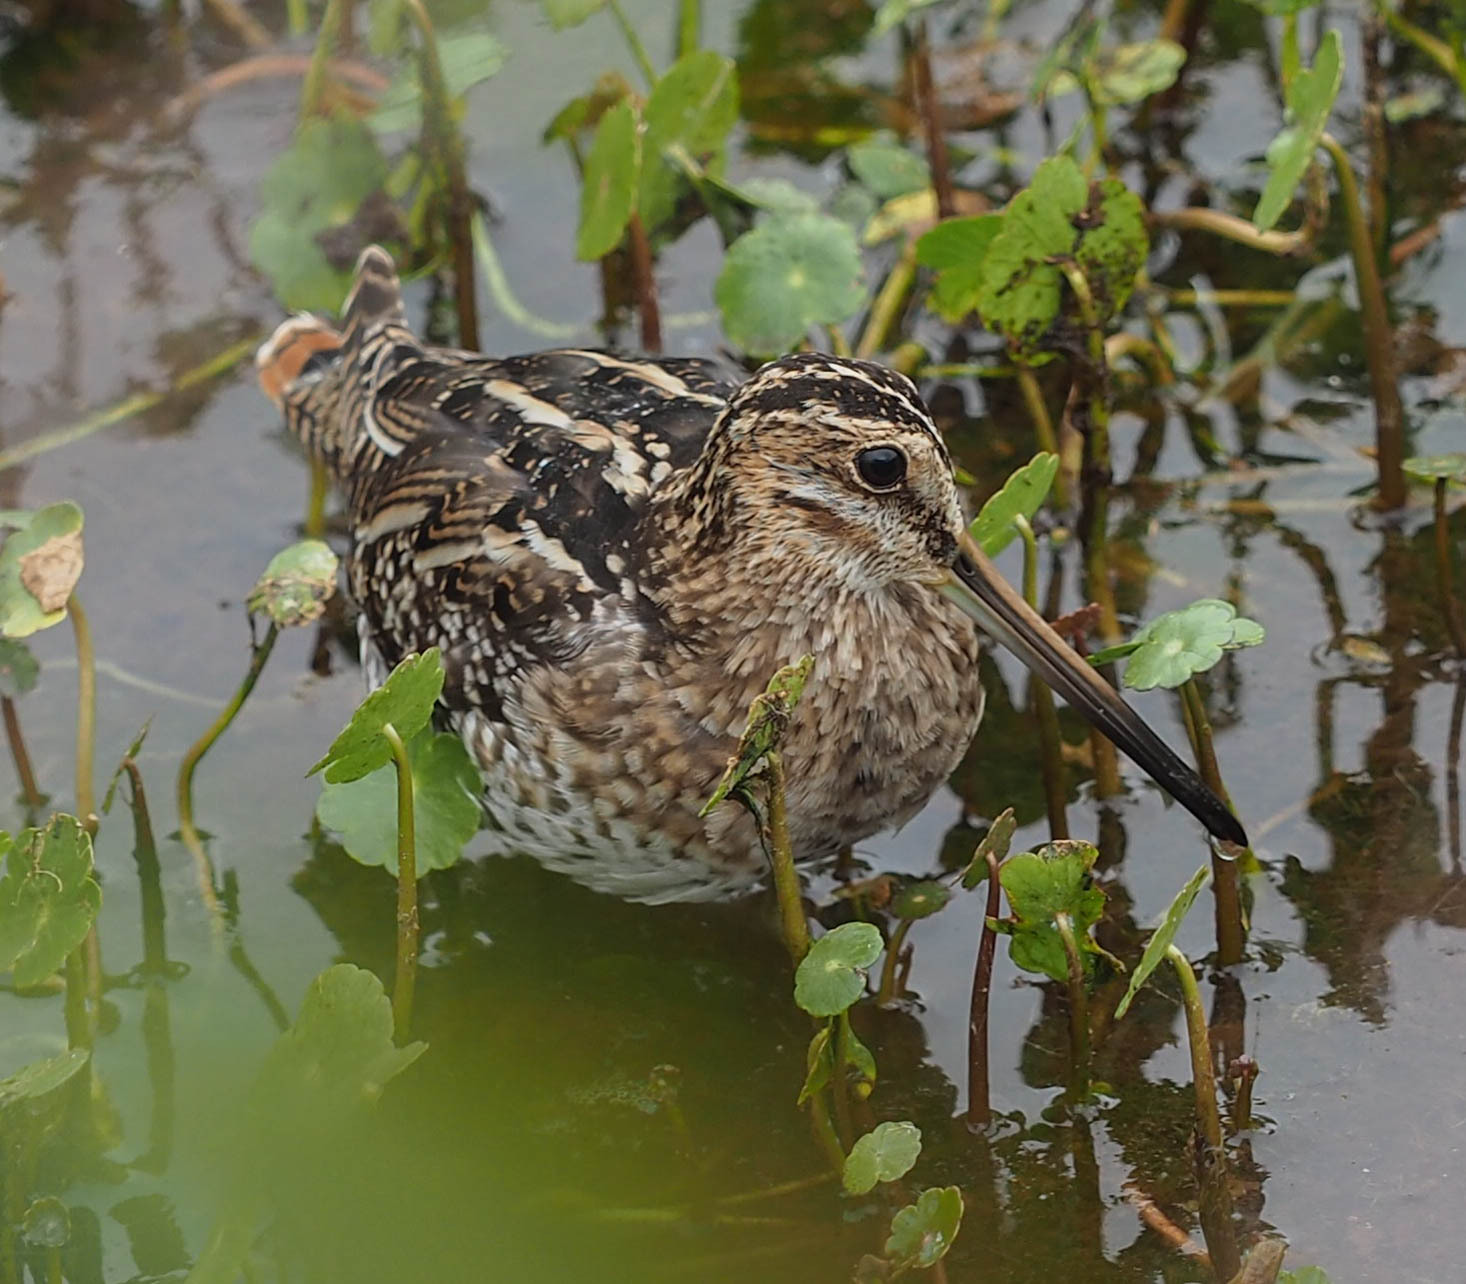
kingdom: Animalia
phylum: Chordata
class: Aves
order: Charadriiformes
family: Scolopacidae
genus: Gallinago
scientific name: Gallinago delicata
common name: Wilson's snipe
